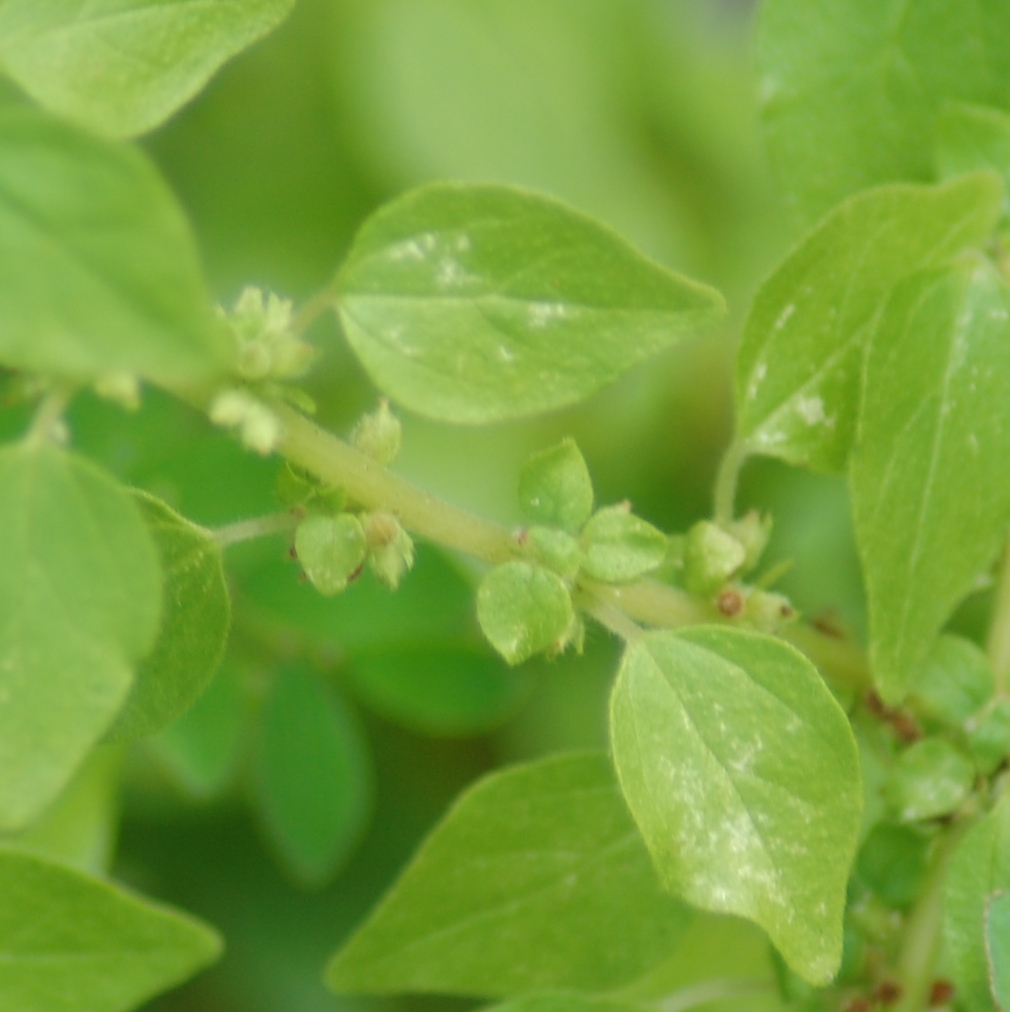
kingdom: Plantae
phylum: Tracheophyta
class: Magnoliopsida
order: Rosales
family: Urticaceae
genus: Parietaria
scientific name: Parietaria debilis
